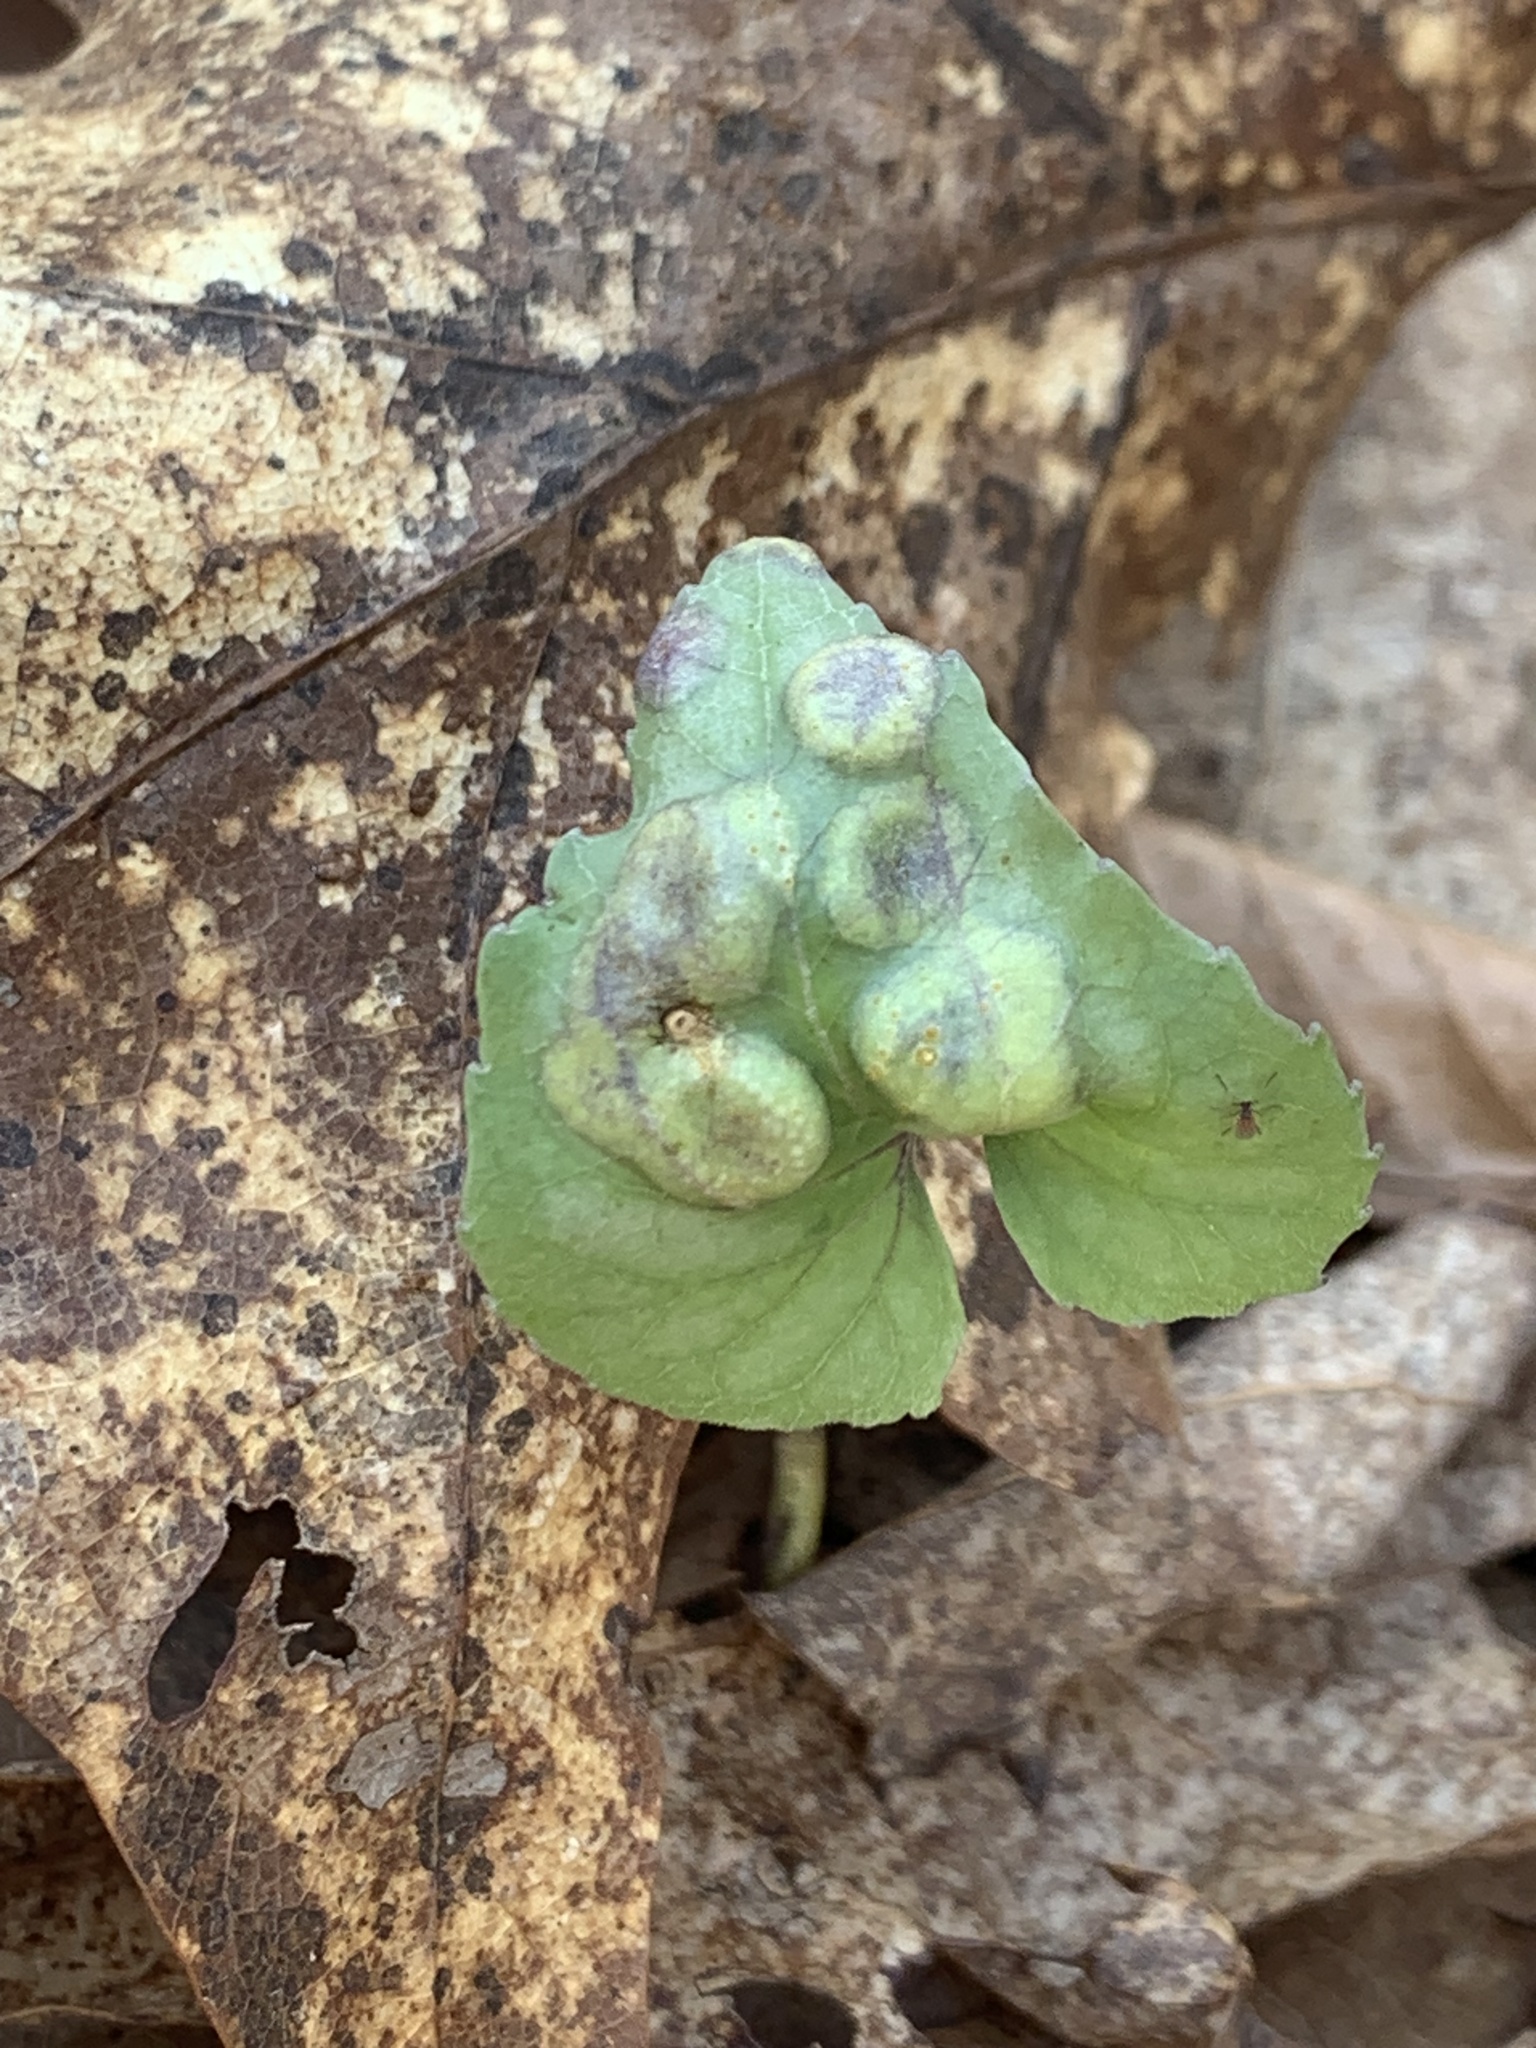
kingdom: Fungi
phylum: Basidiomycota
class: Pucciniomycetes
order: Pucciniales
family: Pucciniaceae
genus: Puccinia
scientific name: Puccinia violae
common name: Violet rust
